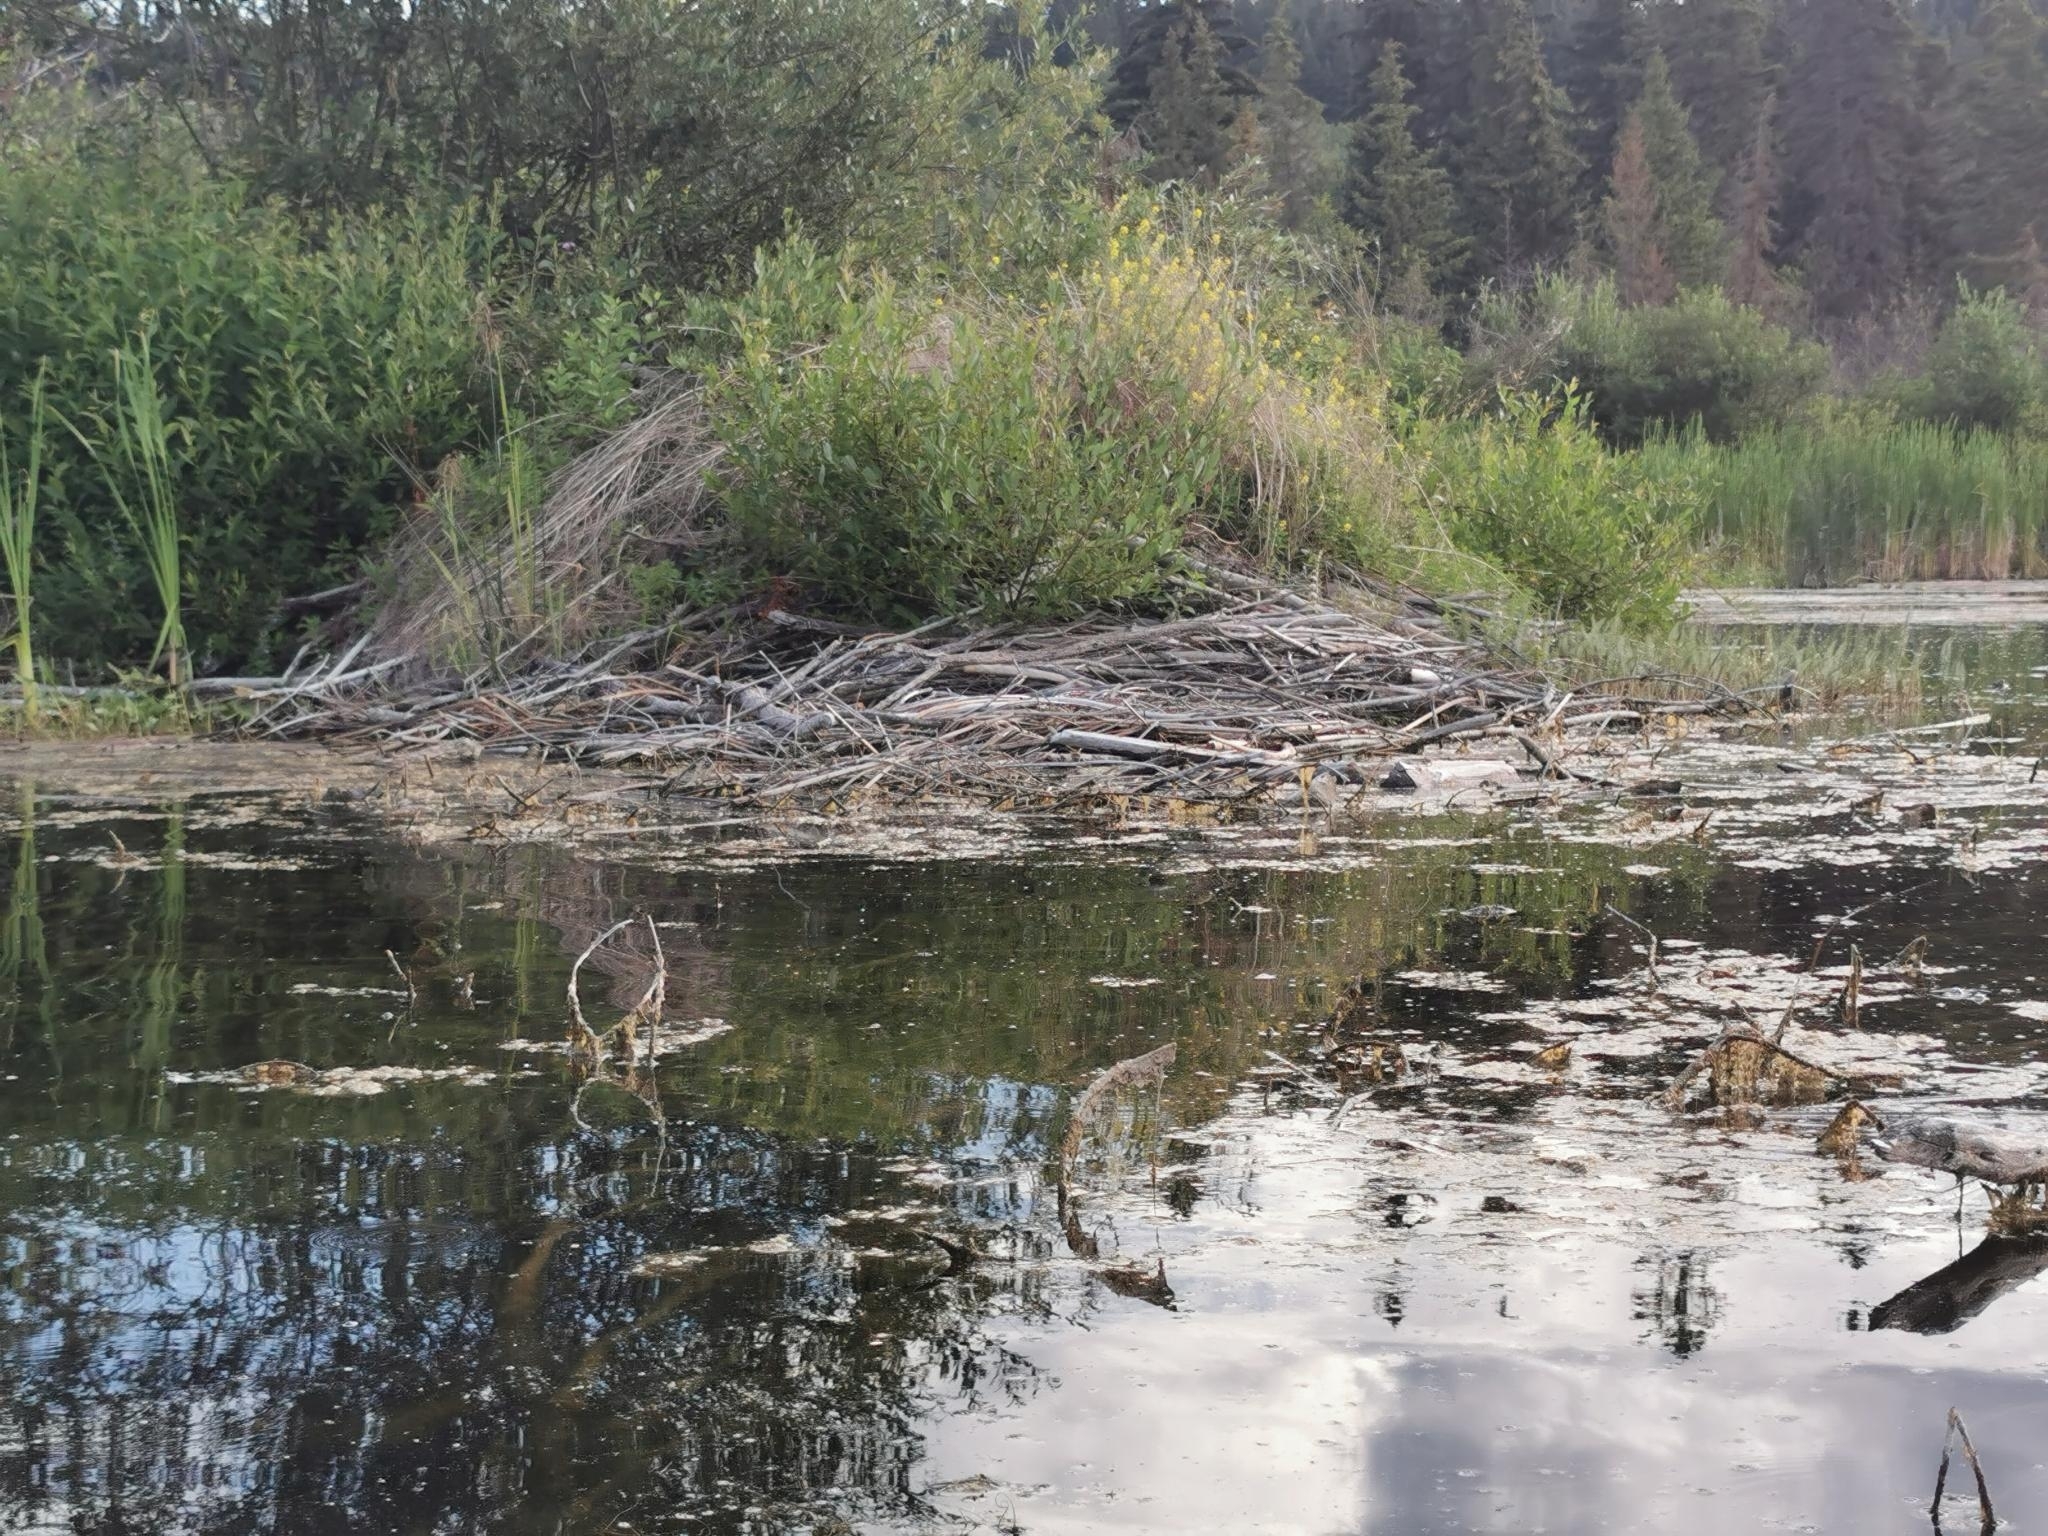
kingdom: Animalia
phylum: Chordata
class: Mammalia
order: Rodentia
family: Castoridae
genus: Castor
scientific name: Castor canadensis
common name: American beaver
